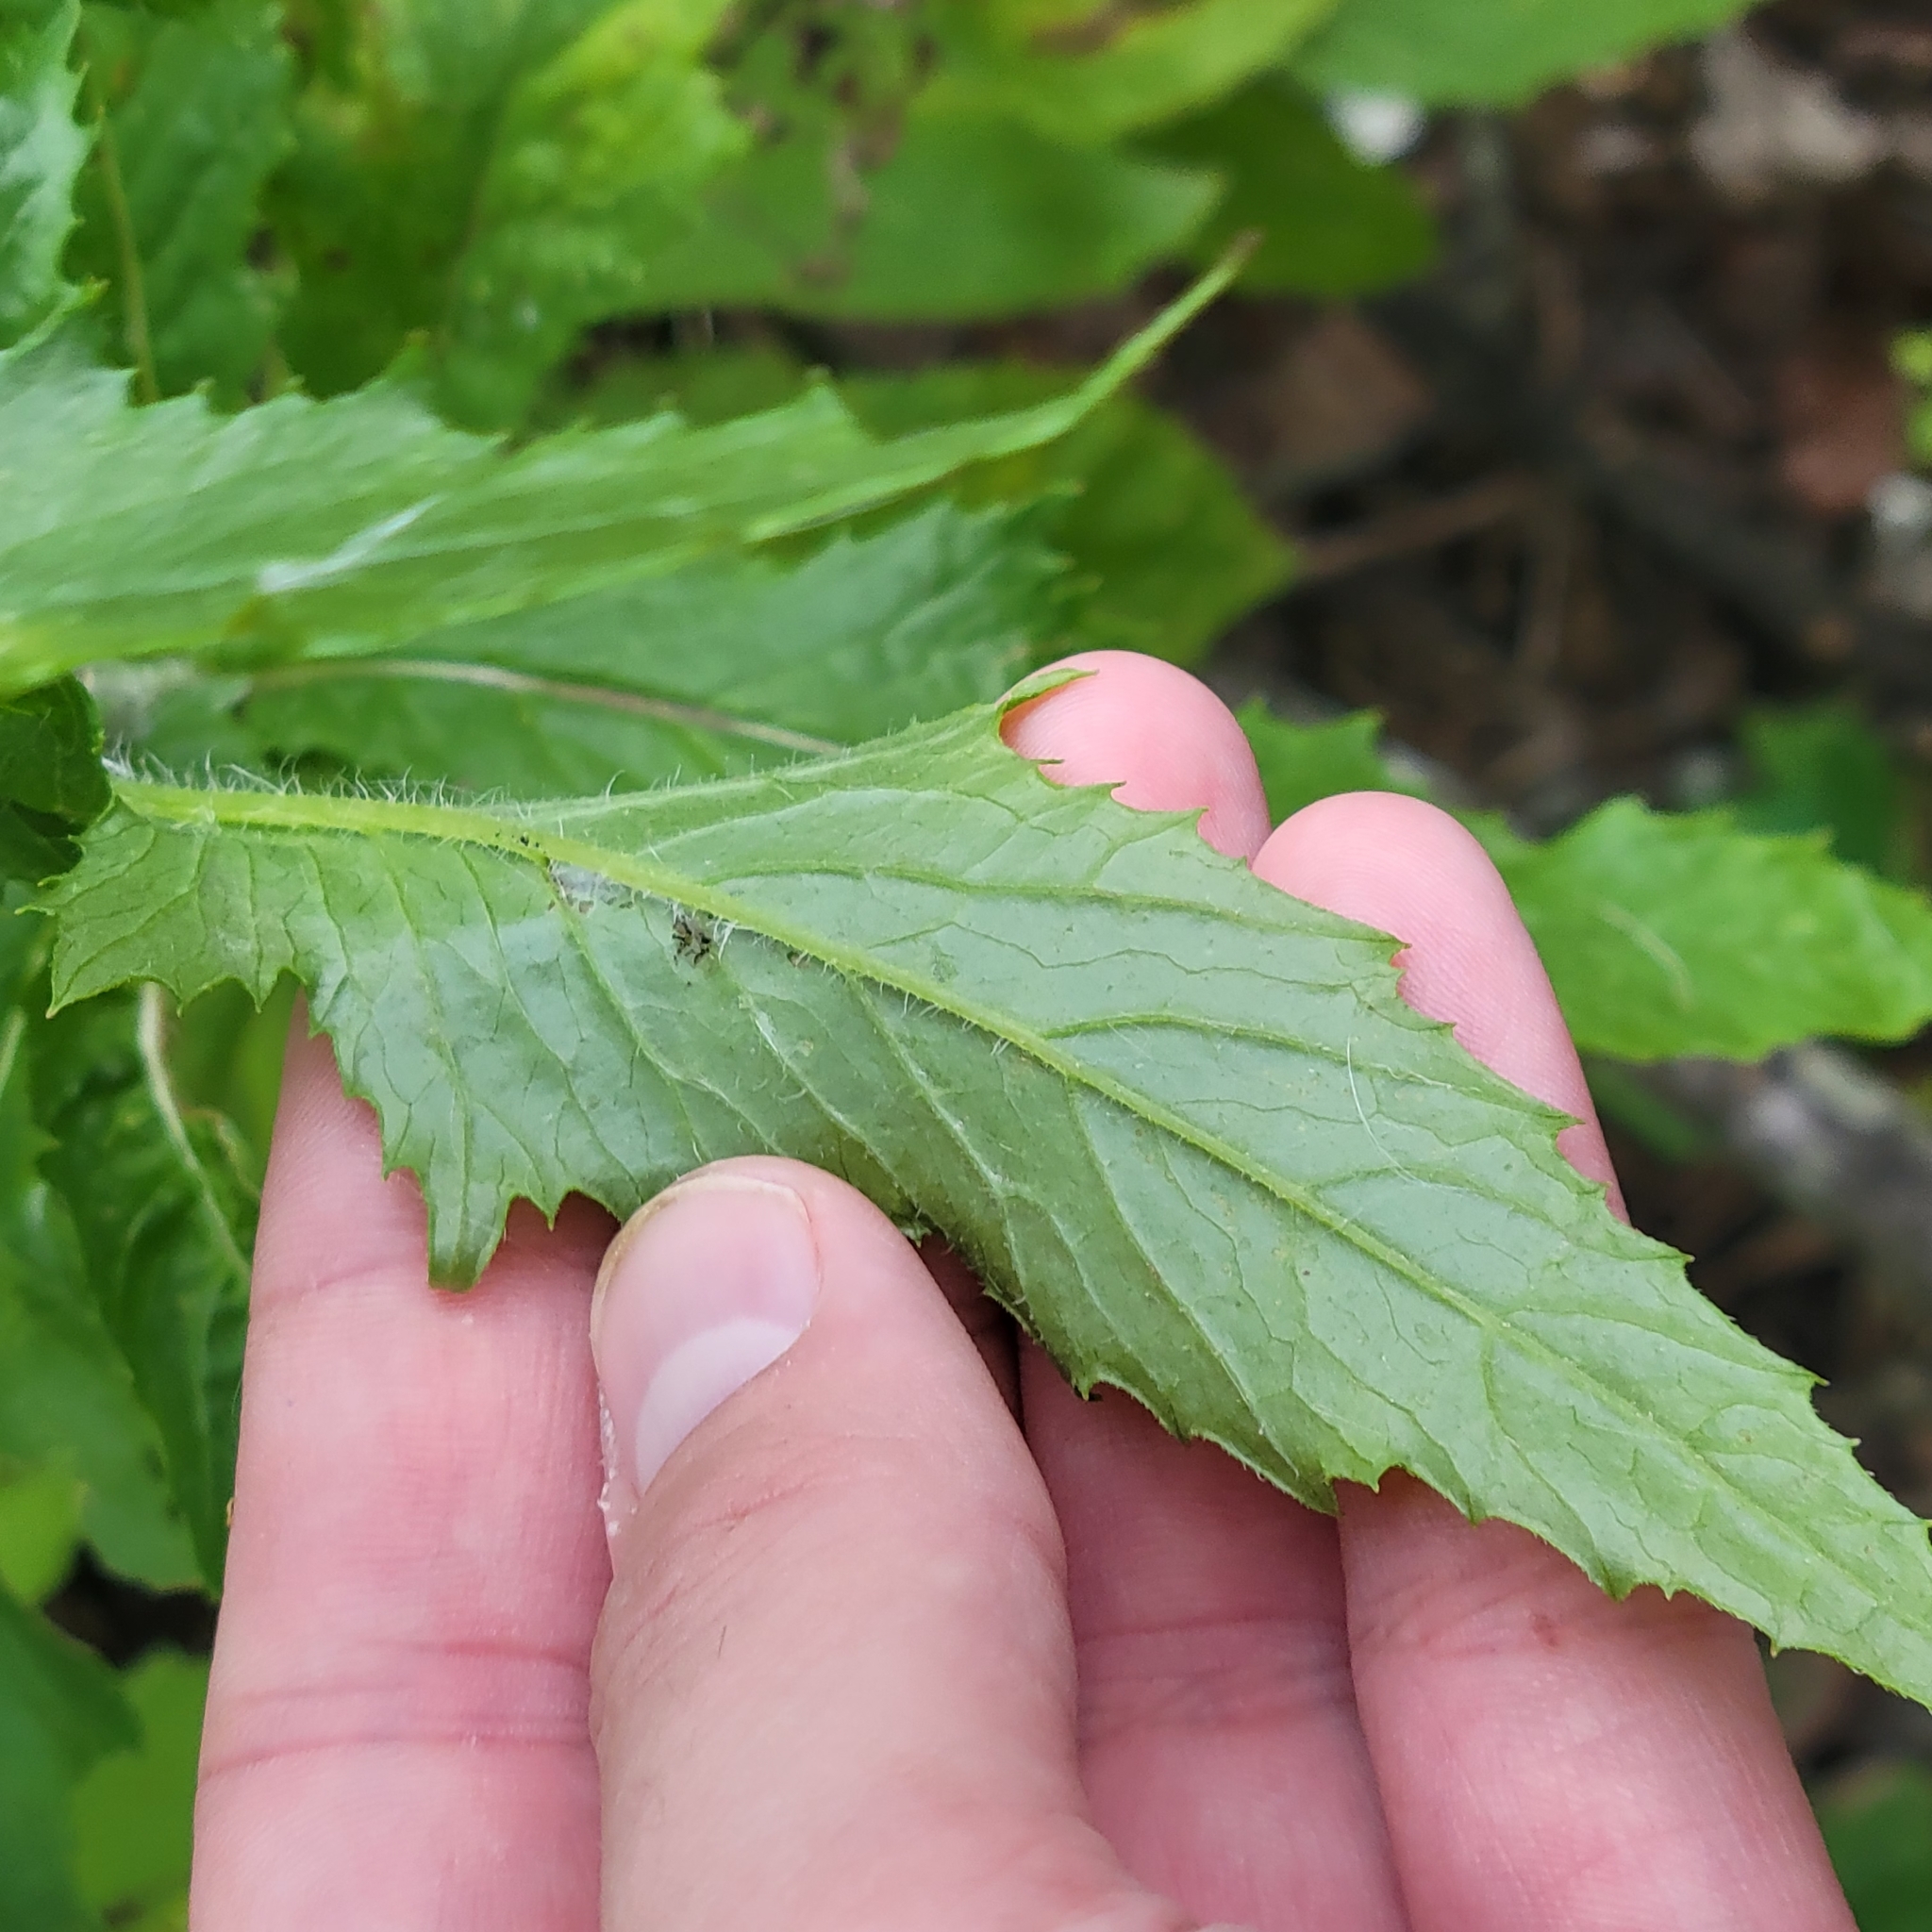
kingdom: Plantae
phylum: Tracheophyta
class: Magnoliopsida
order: Asterales
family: Asteraceae
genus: Erechtites
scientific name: Erechtites hieraciifolius
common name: American burnweed
